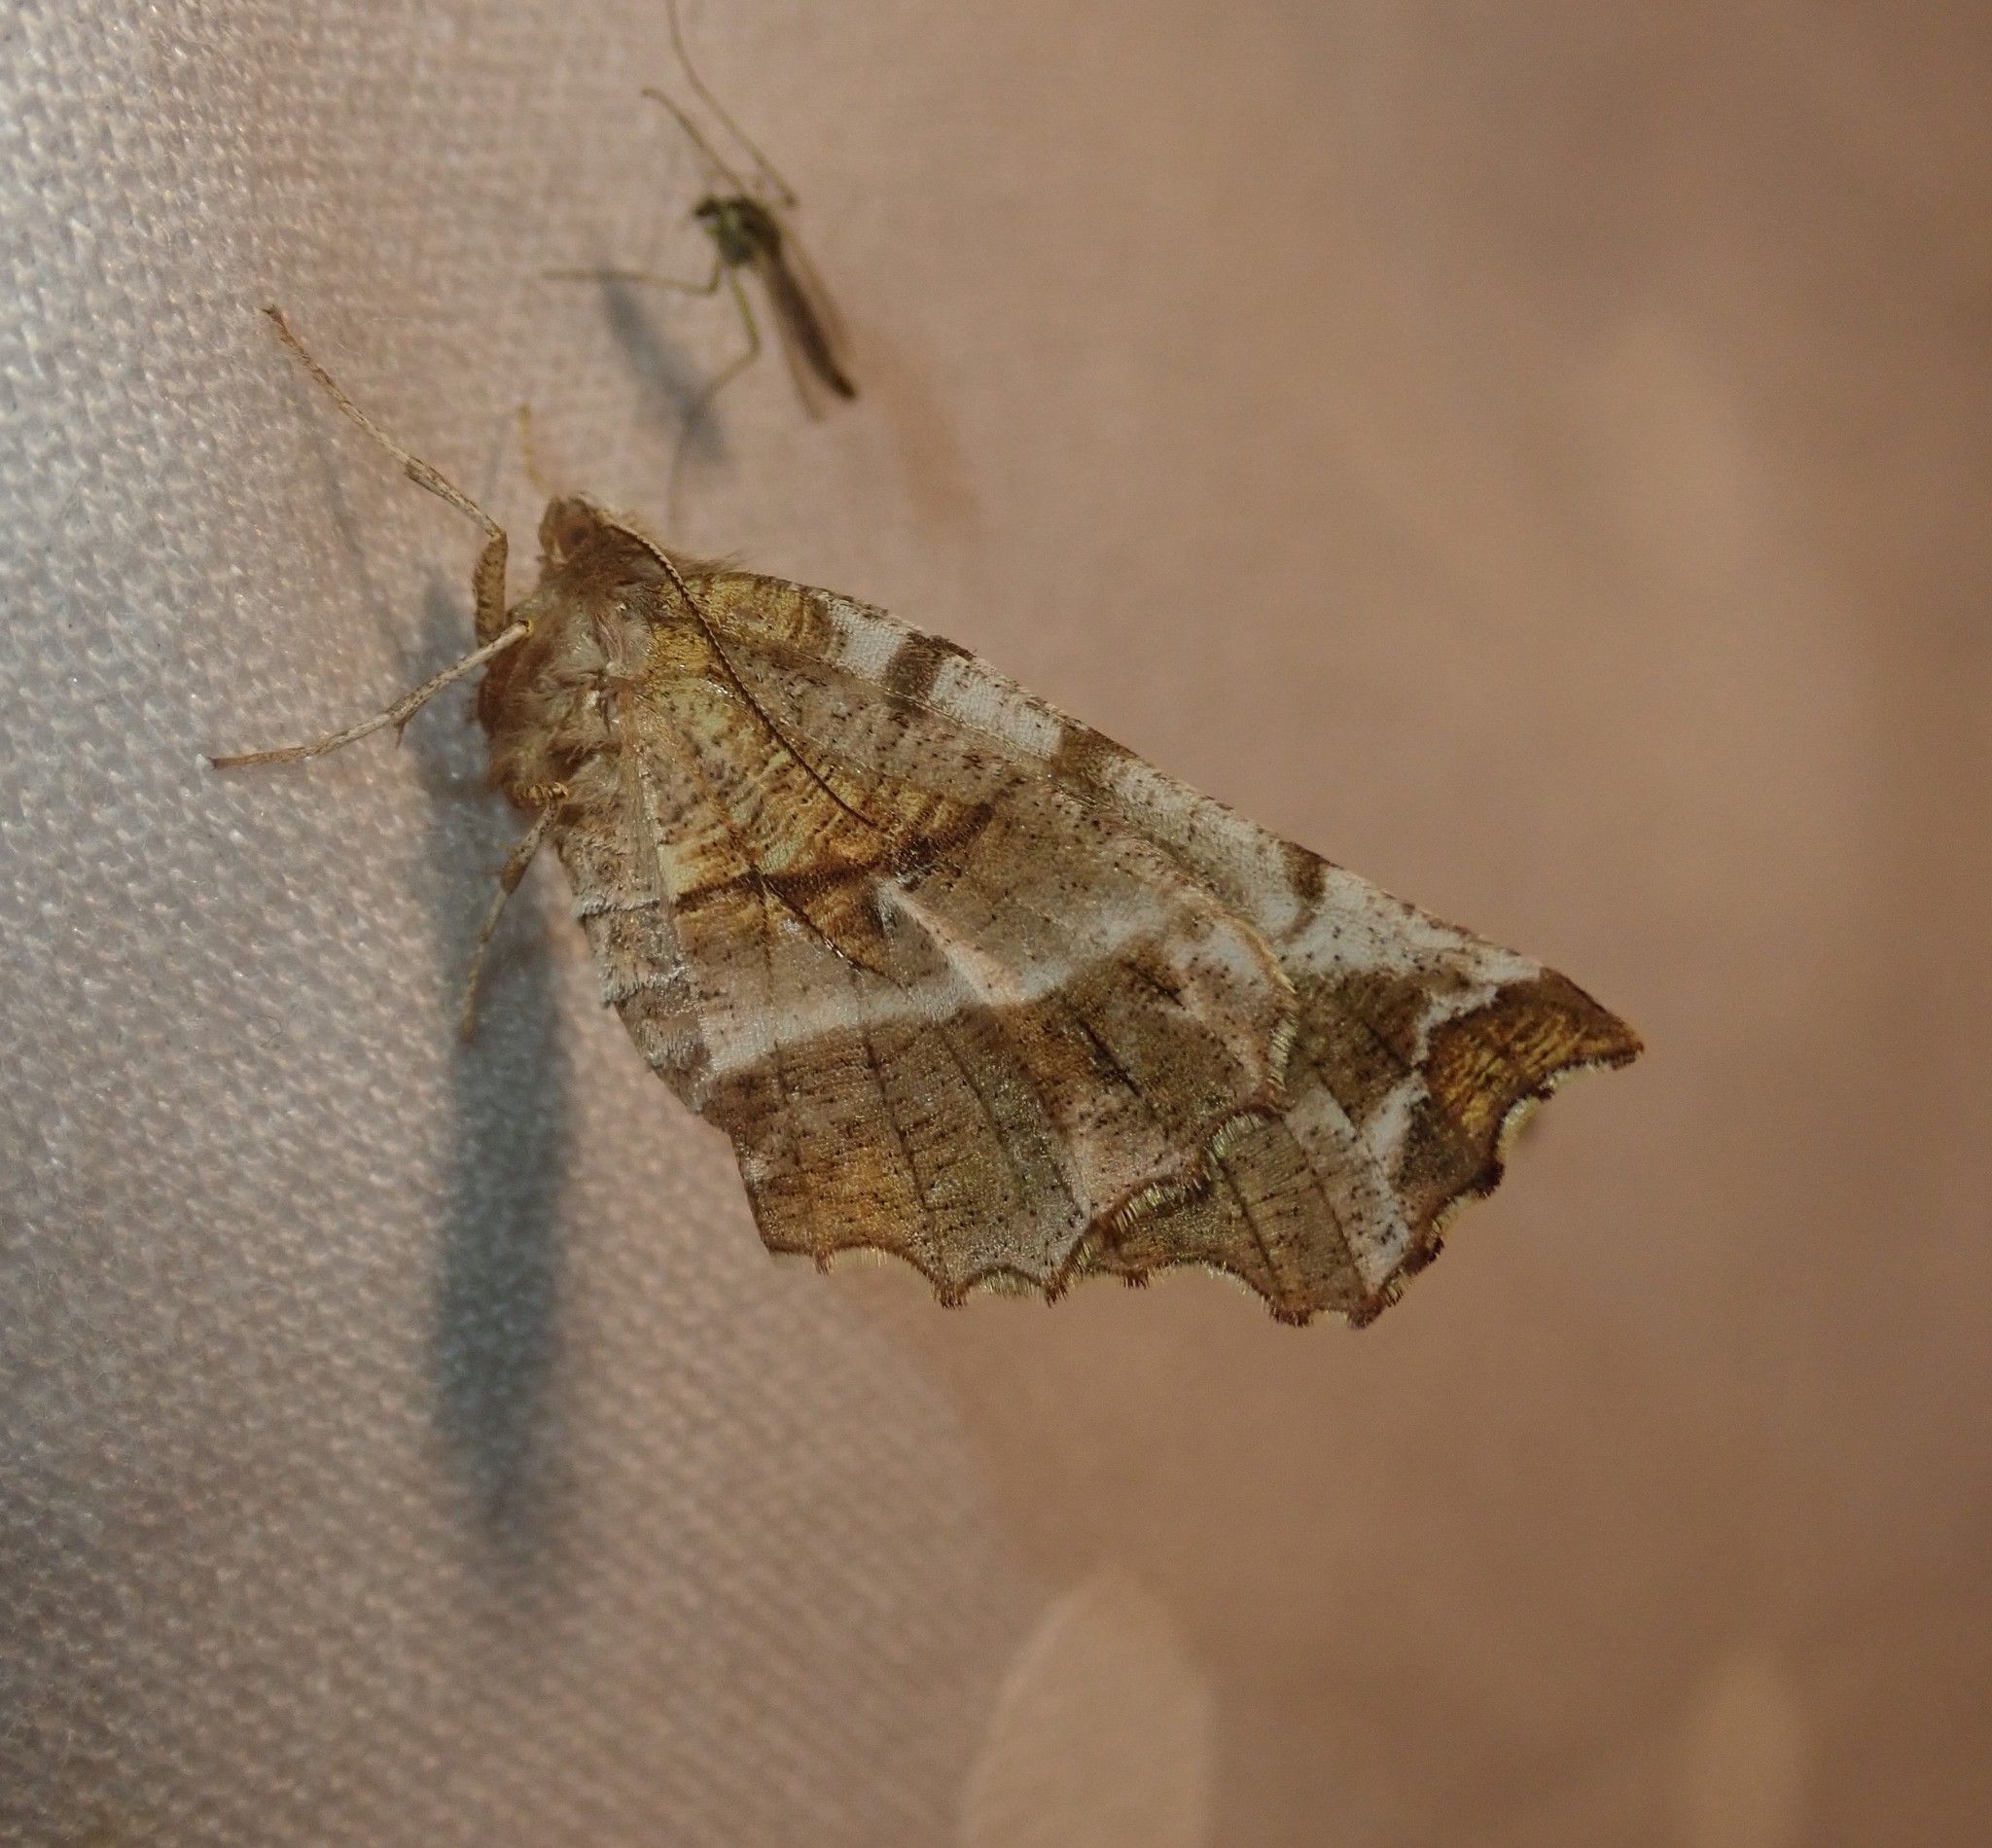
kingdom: Animalia
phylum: Arthropoda
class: Insecta
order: Lepidoptera
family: Geometridae
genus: Selenia
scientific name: Selenia dentaria
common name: Early thorn
